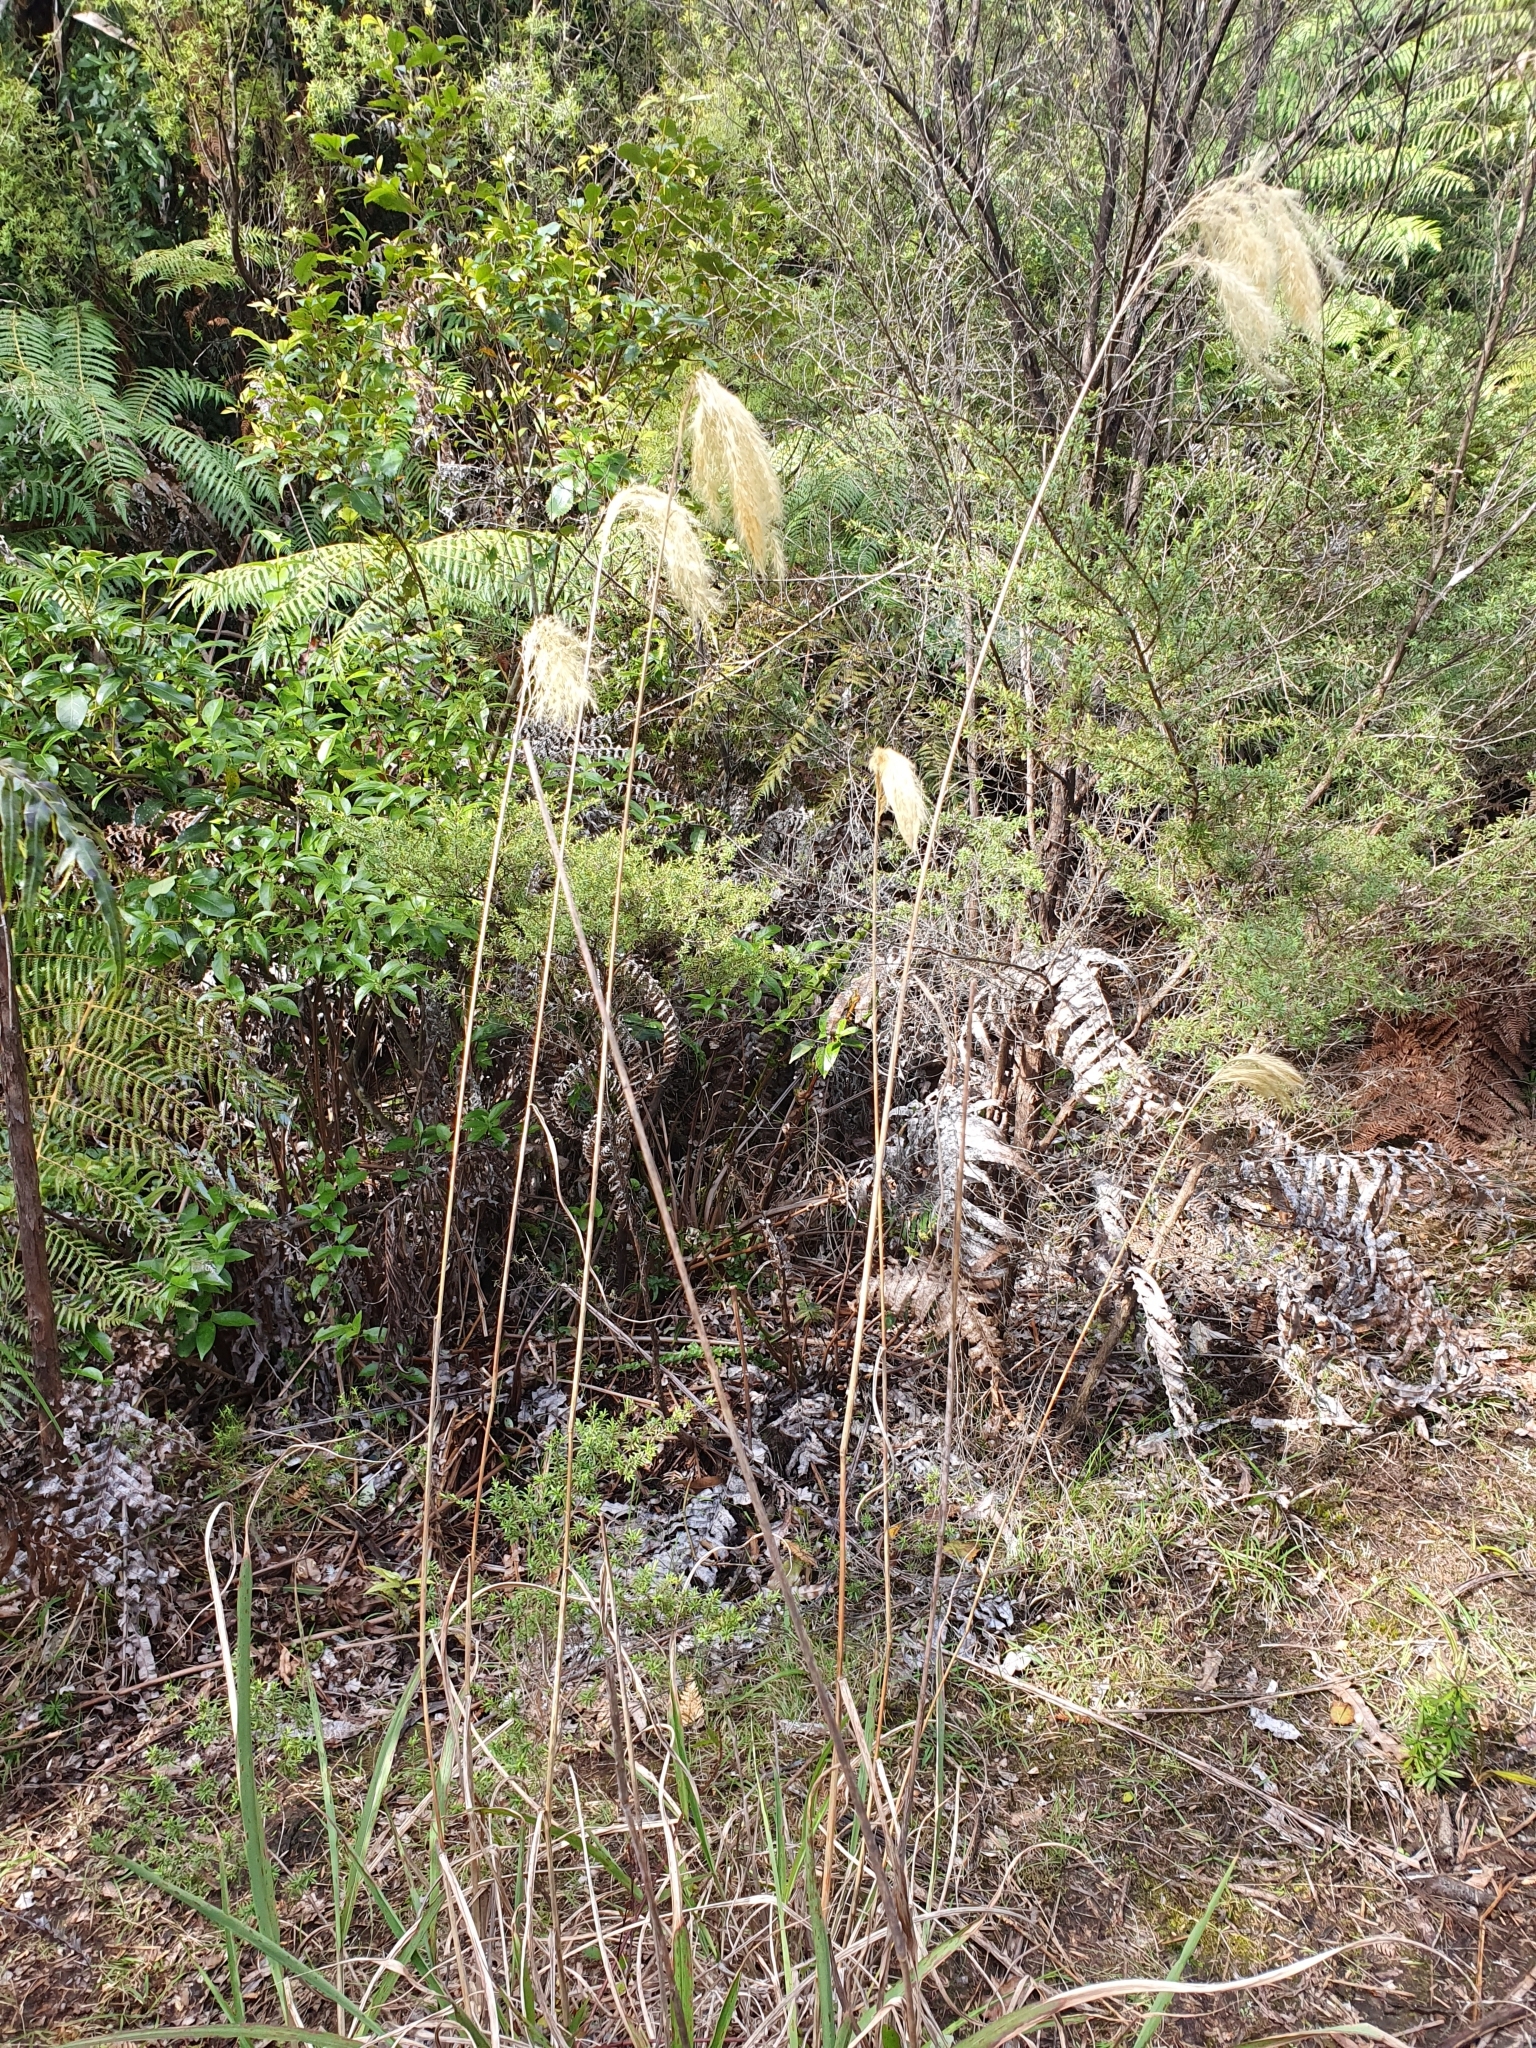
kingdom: Plantae
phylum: Tracheophyta
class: Liliopsida
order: Poales
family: Poaceae
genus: Miscanthus
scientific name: Miscanthus nepalensis
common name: Nepal silver grass
